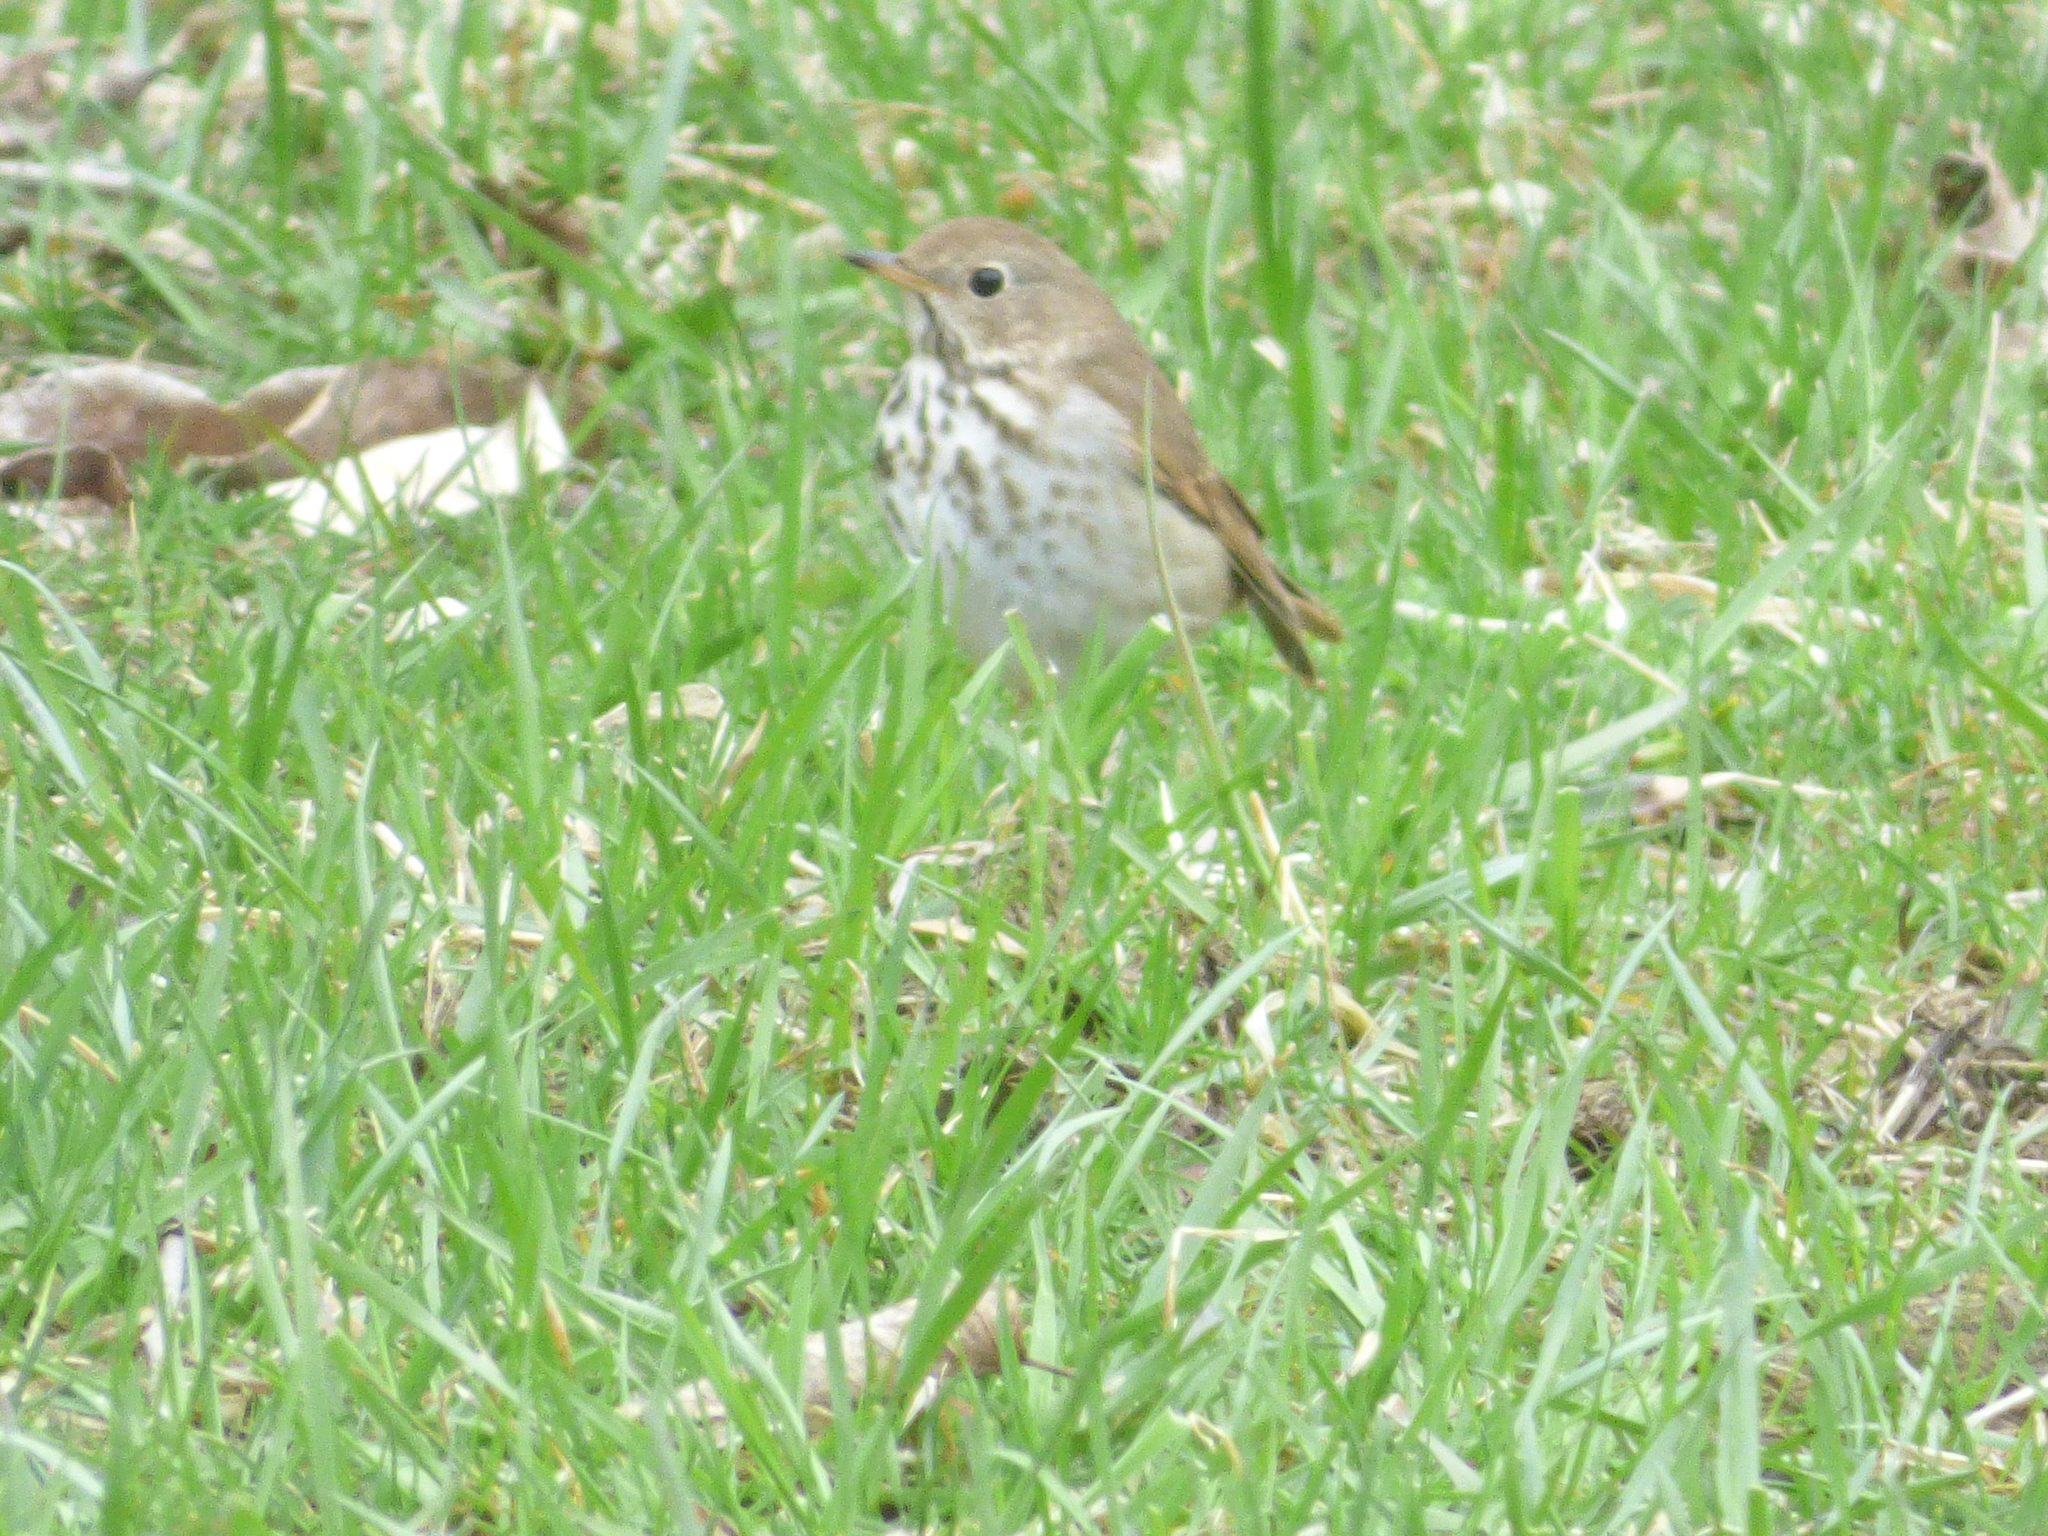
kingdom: Animalia
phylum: Chordata
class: Aves
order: Passeriformes
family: Turdidae
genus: Catharus
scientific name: Catharus guttatus
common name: Hermit thrush
